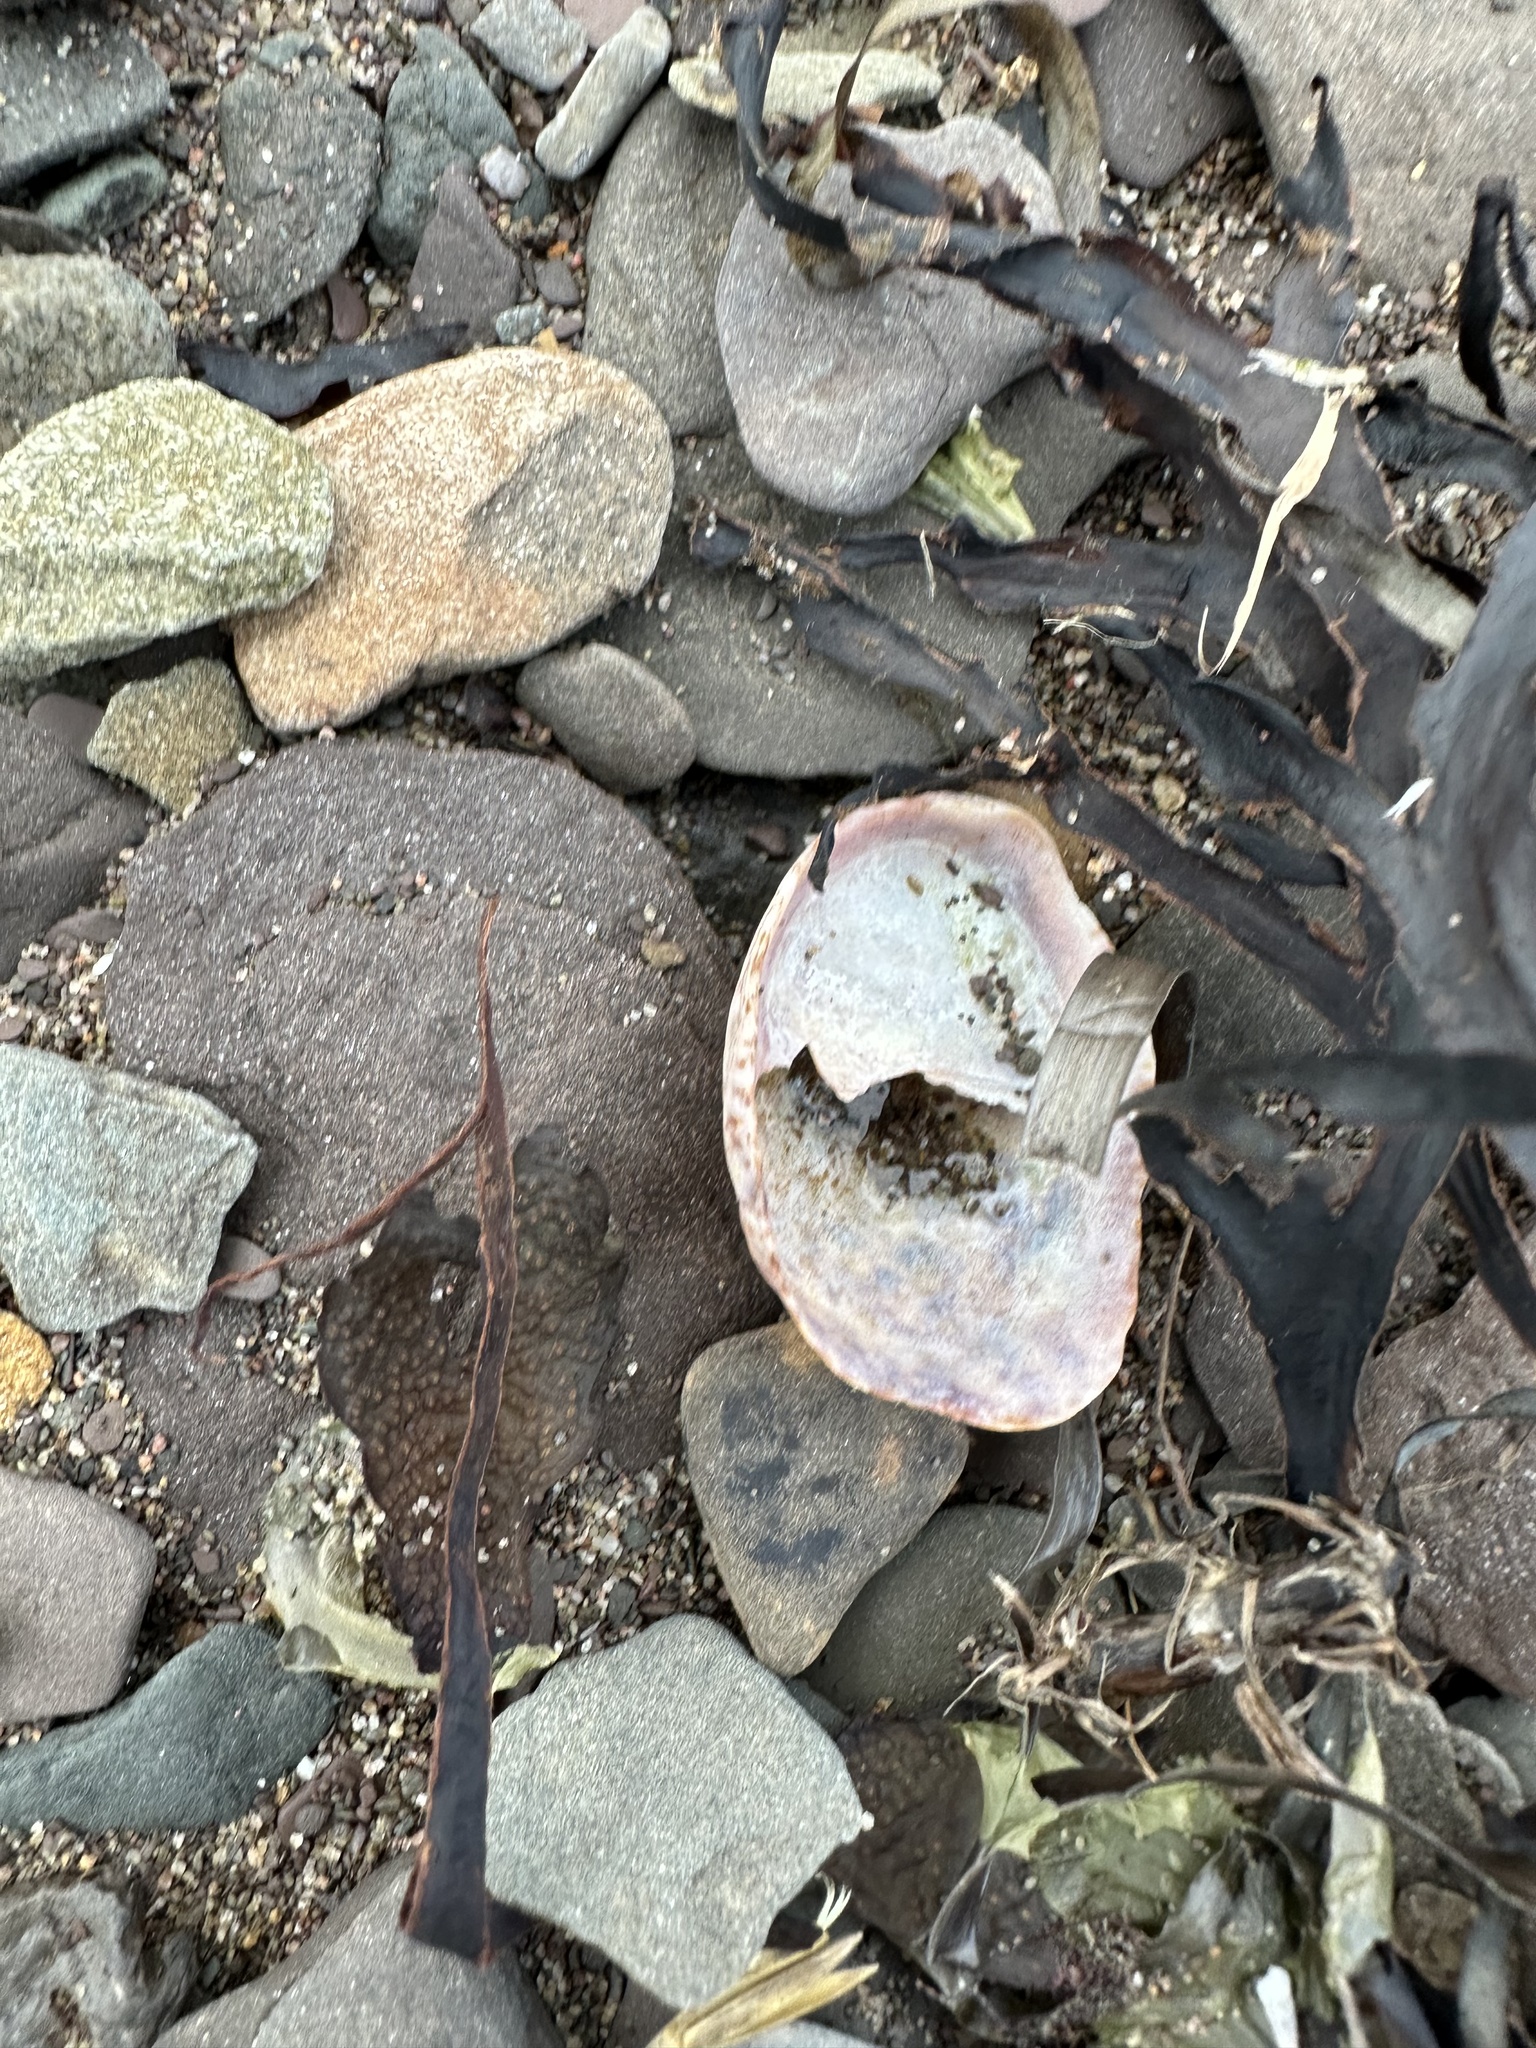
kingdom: Animalia
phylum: Mollusca
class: Gastropoda
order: Littorinimorpha
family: Calyptraeidae
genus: Crepidula
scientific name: Crepidula fornicata
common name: Slipper limpet
